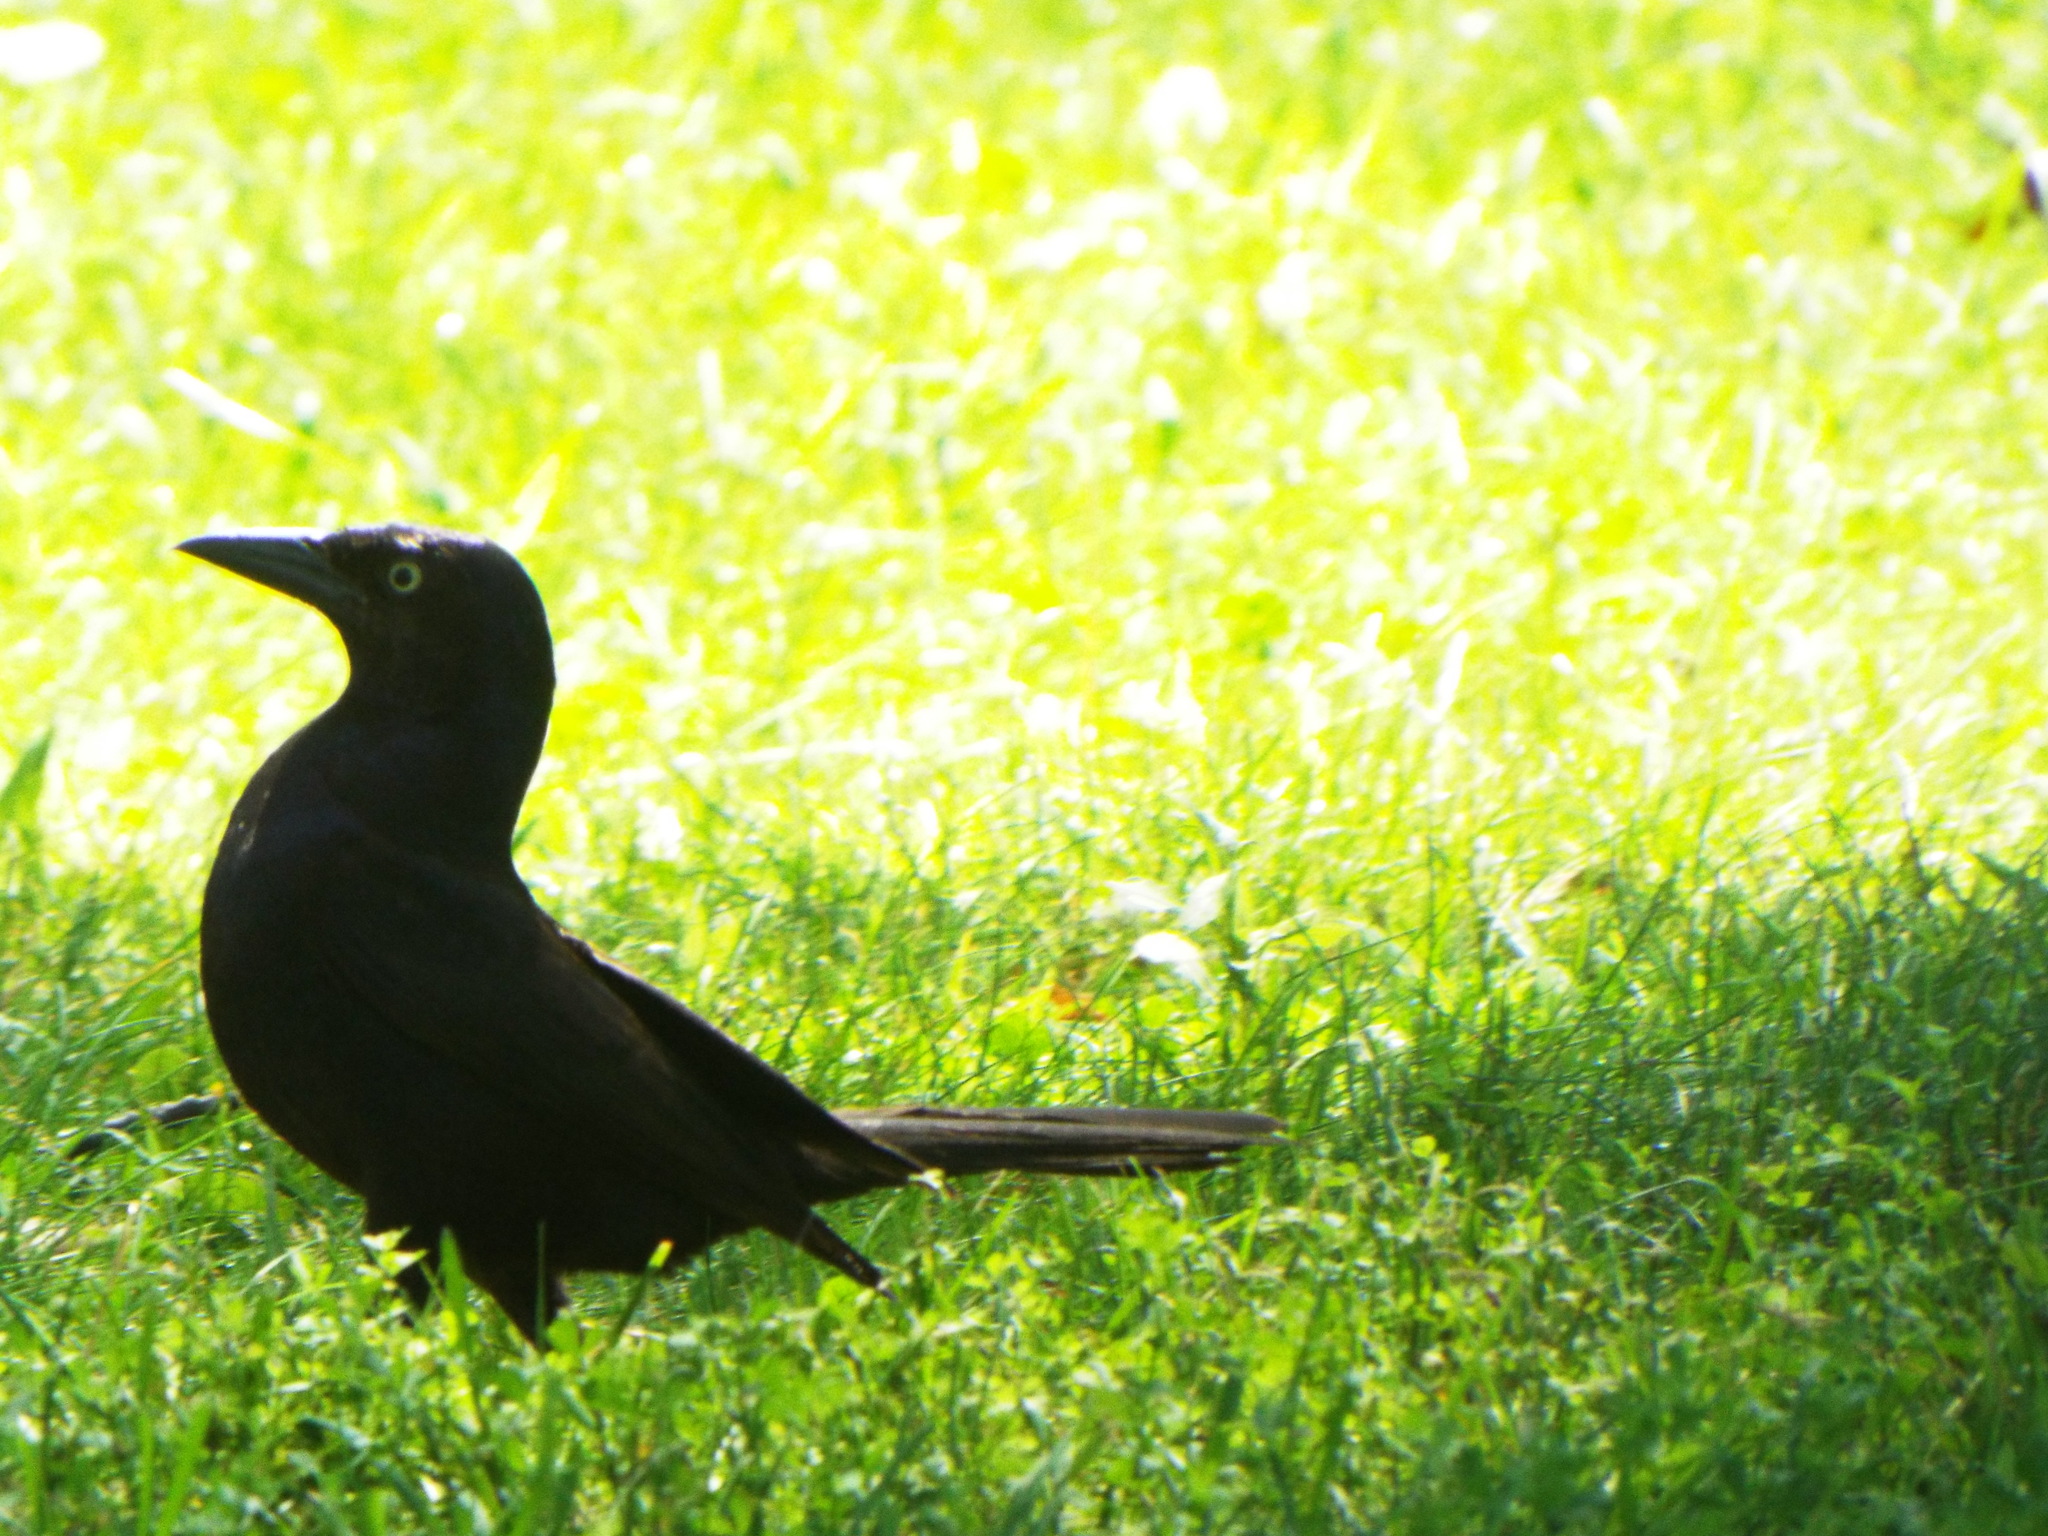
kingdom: Animalia
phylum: Chordata
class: Aves
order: Passeriformes
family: Icteridae
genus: Quiscalus
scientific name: Quiscalus quiscula
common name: Common grackle
